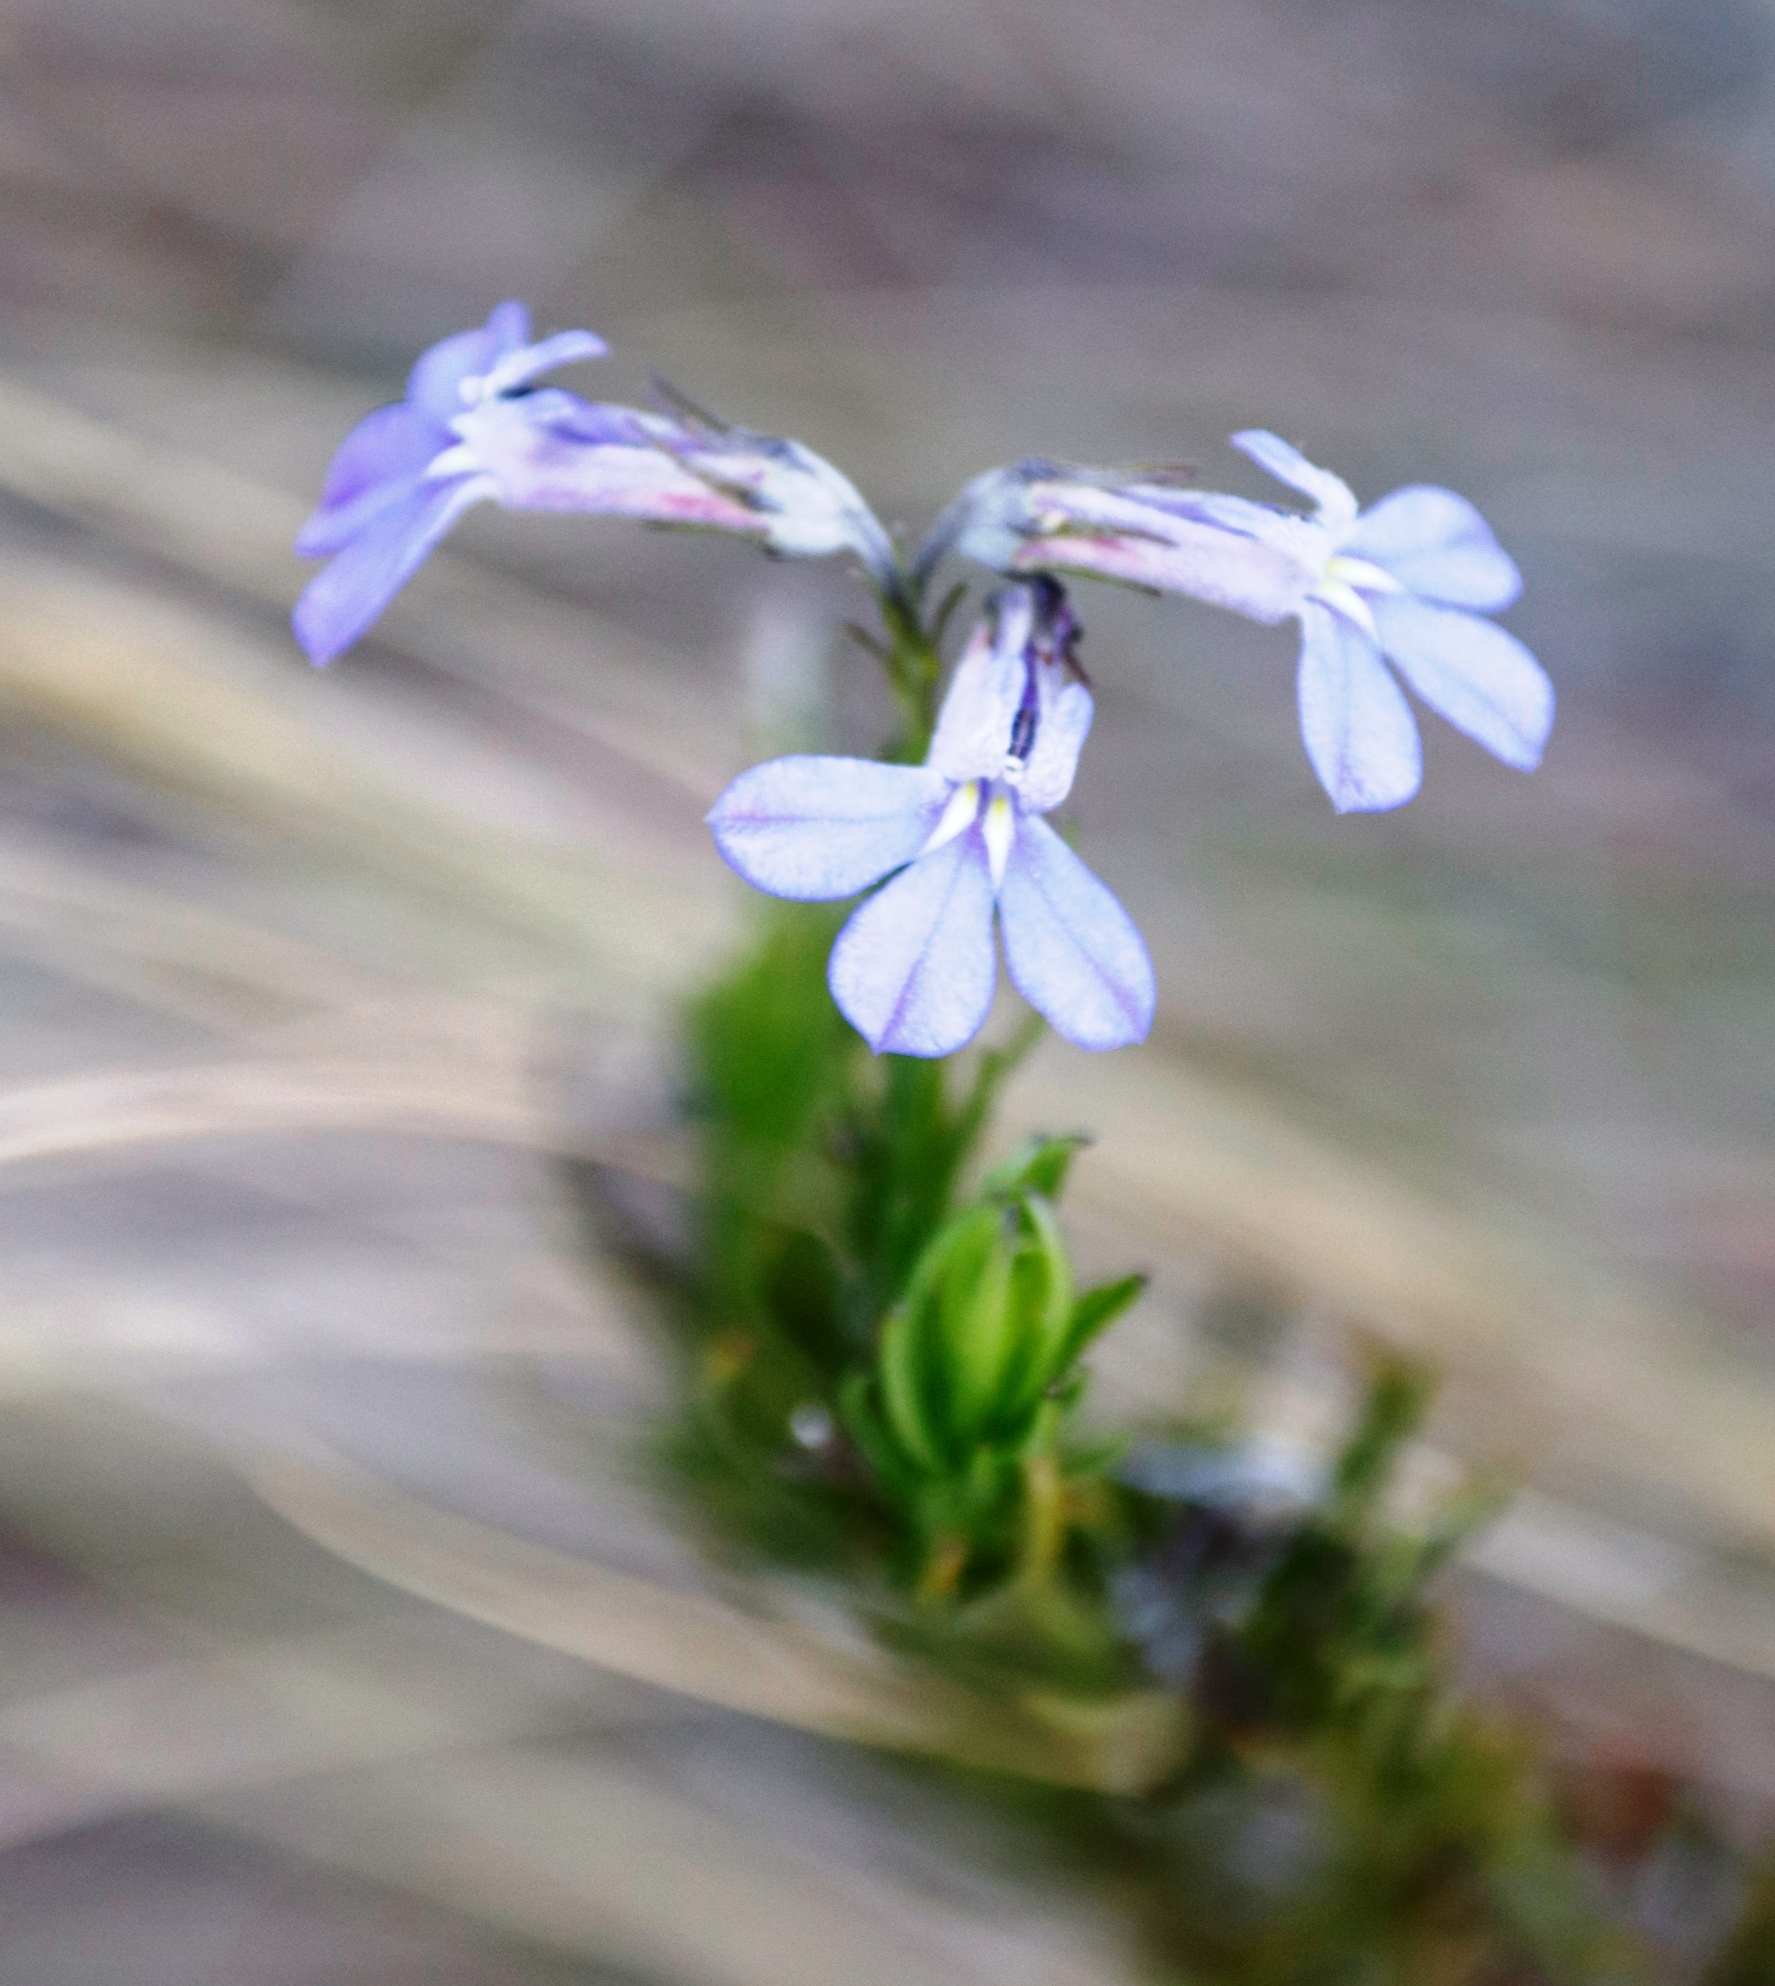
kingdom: Plantae
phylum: Tracheophyta
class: Magnoliopsida
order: Asterales
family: Campanulaceae
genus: Lobelia
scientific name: Lobelia pinifolia
